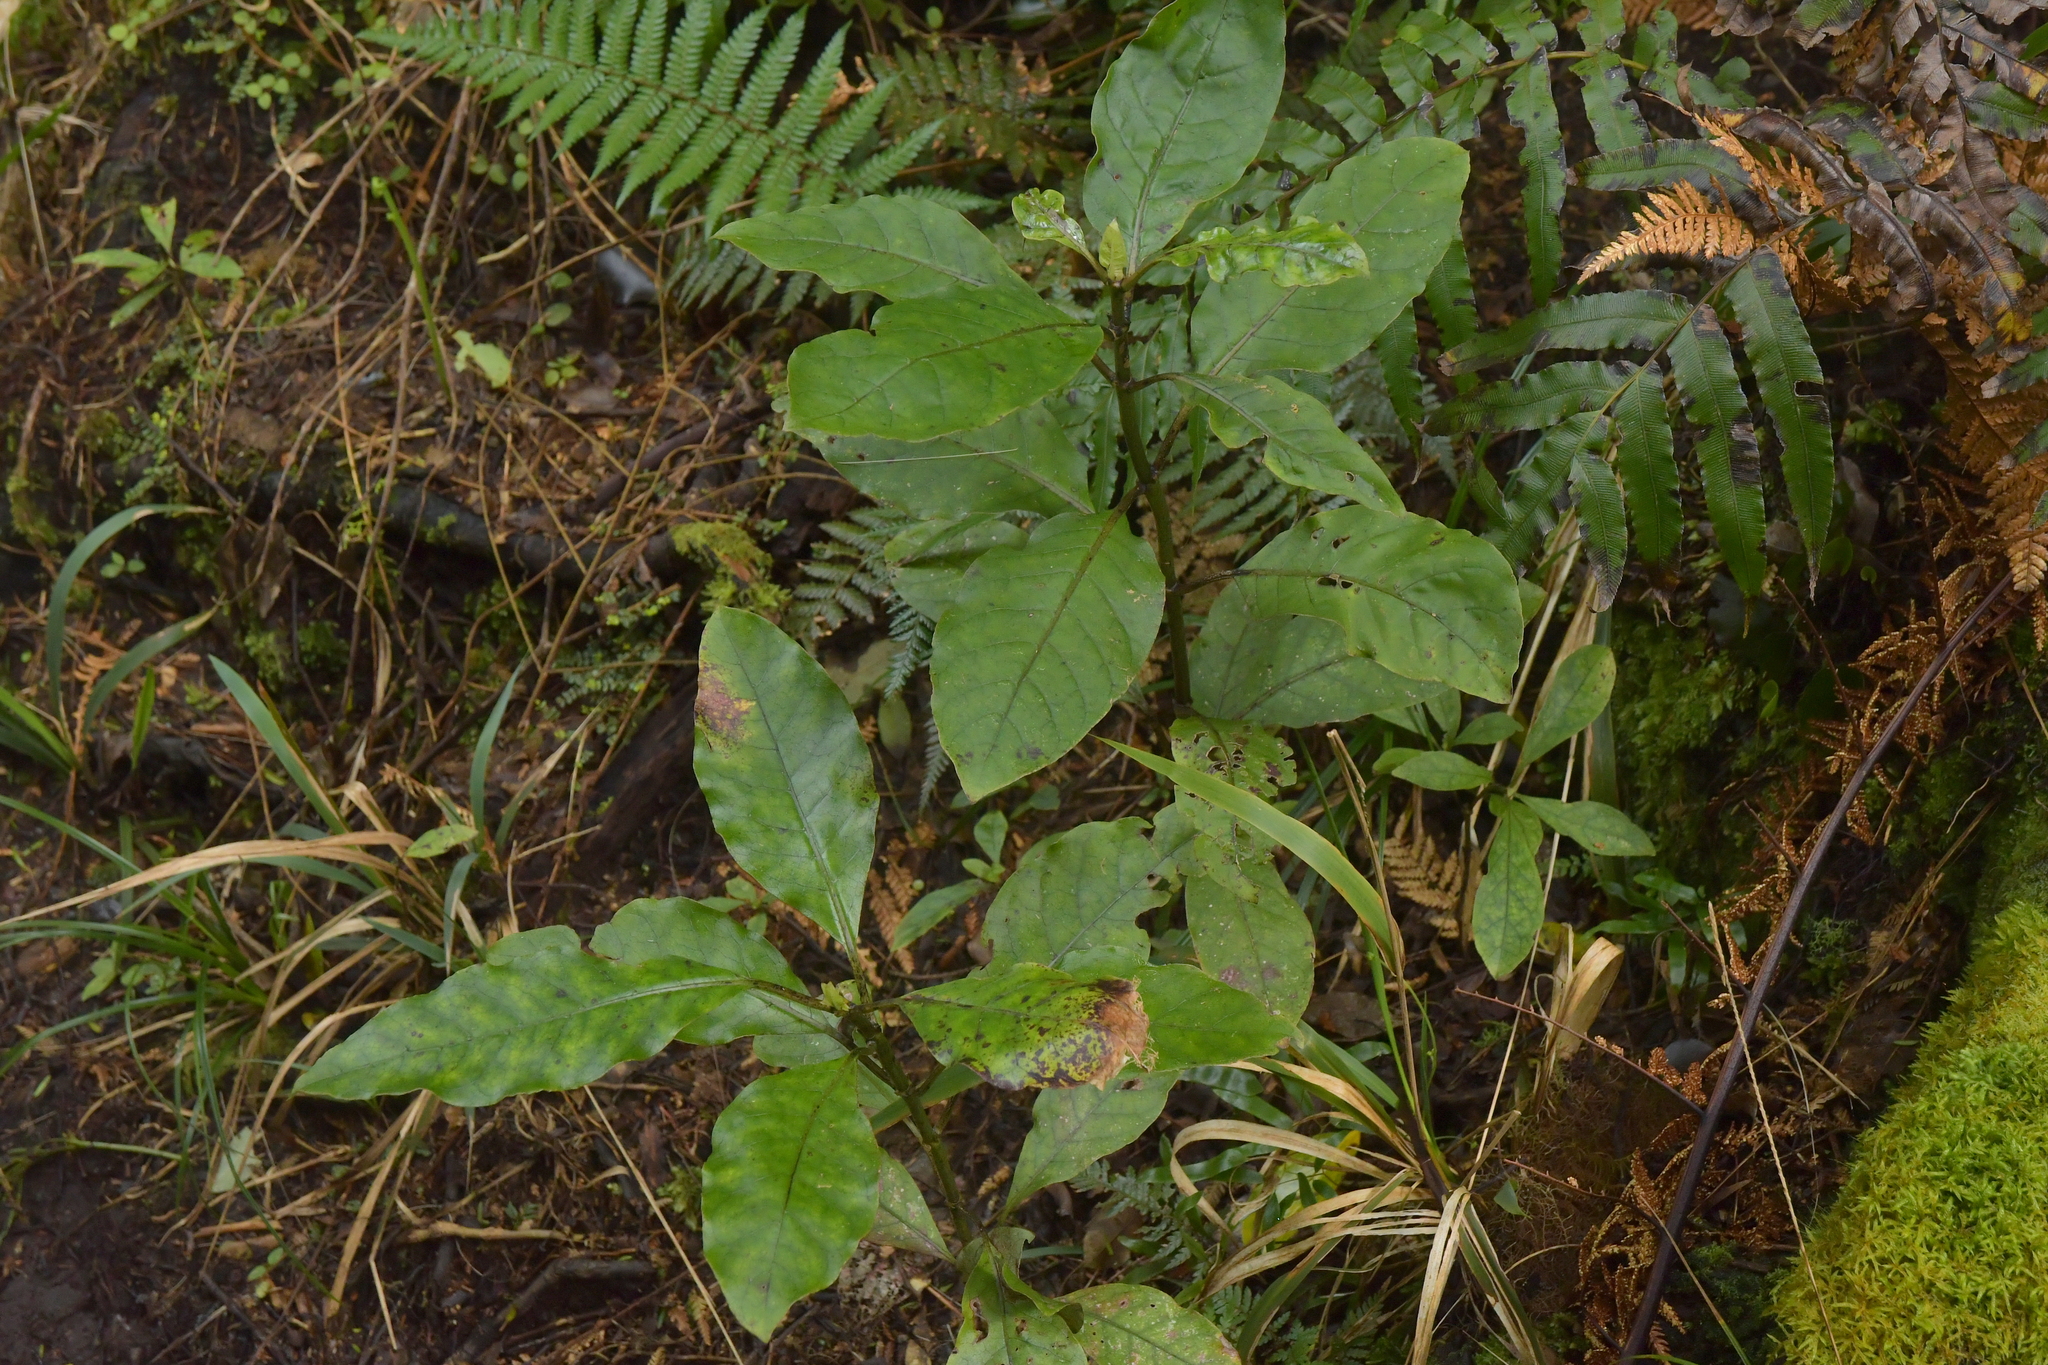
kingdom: Plantae
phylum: Tracheophyta
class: Magnoliopsida
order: Gentianales
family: Rubiaceae
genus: Coprosma
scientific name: Coprosma autumnalis
